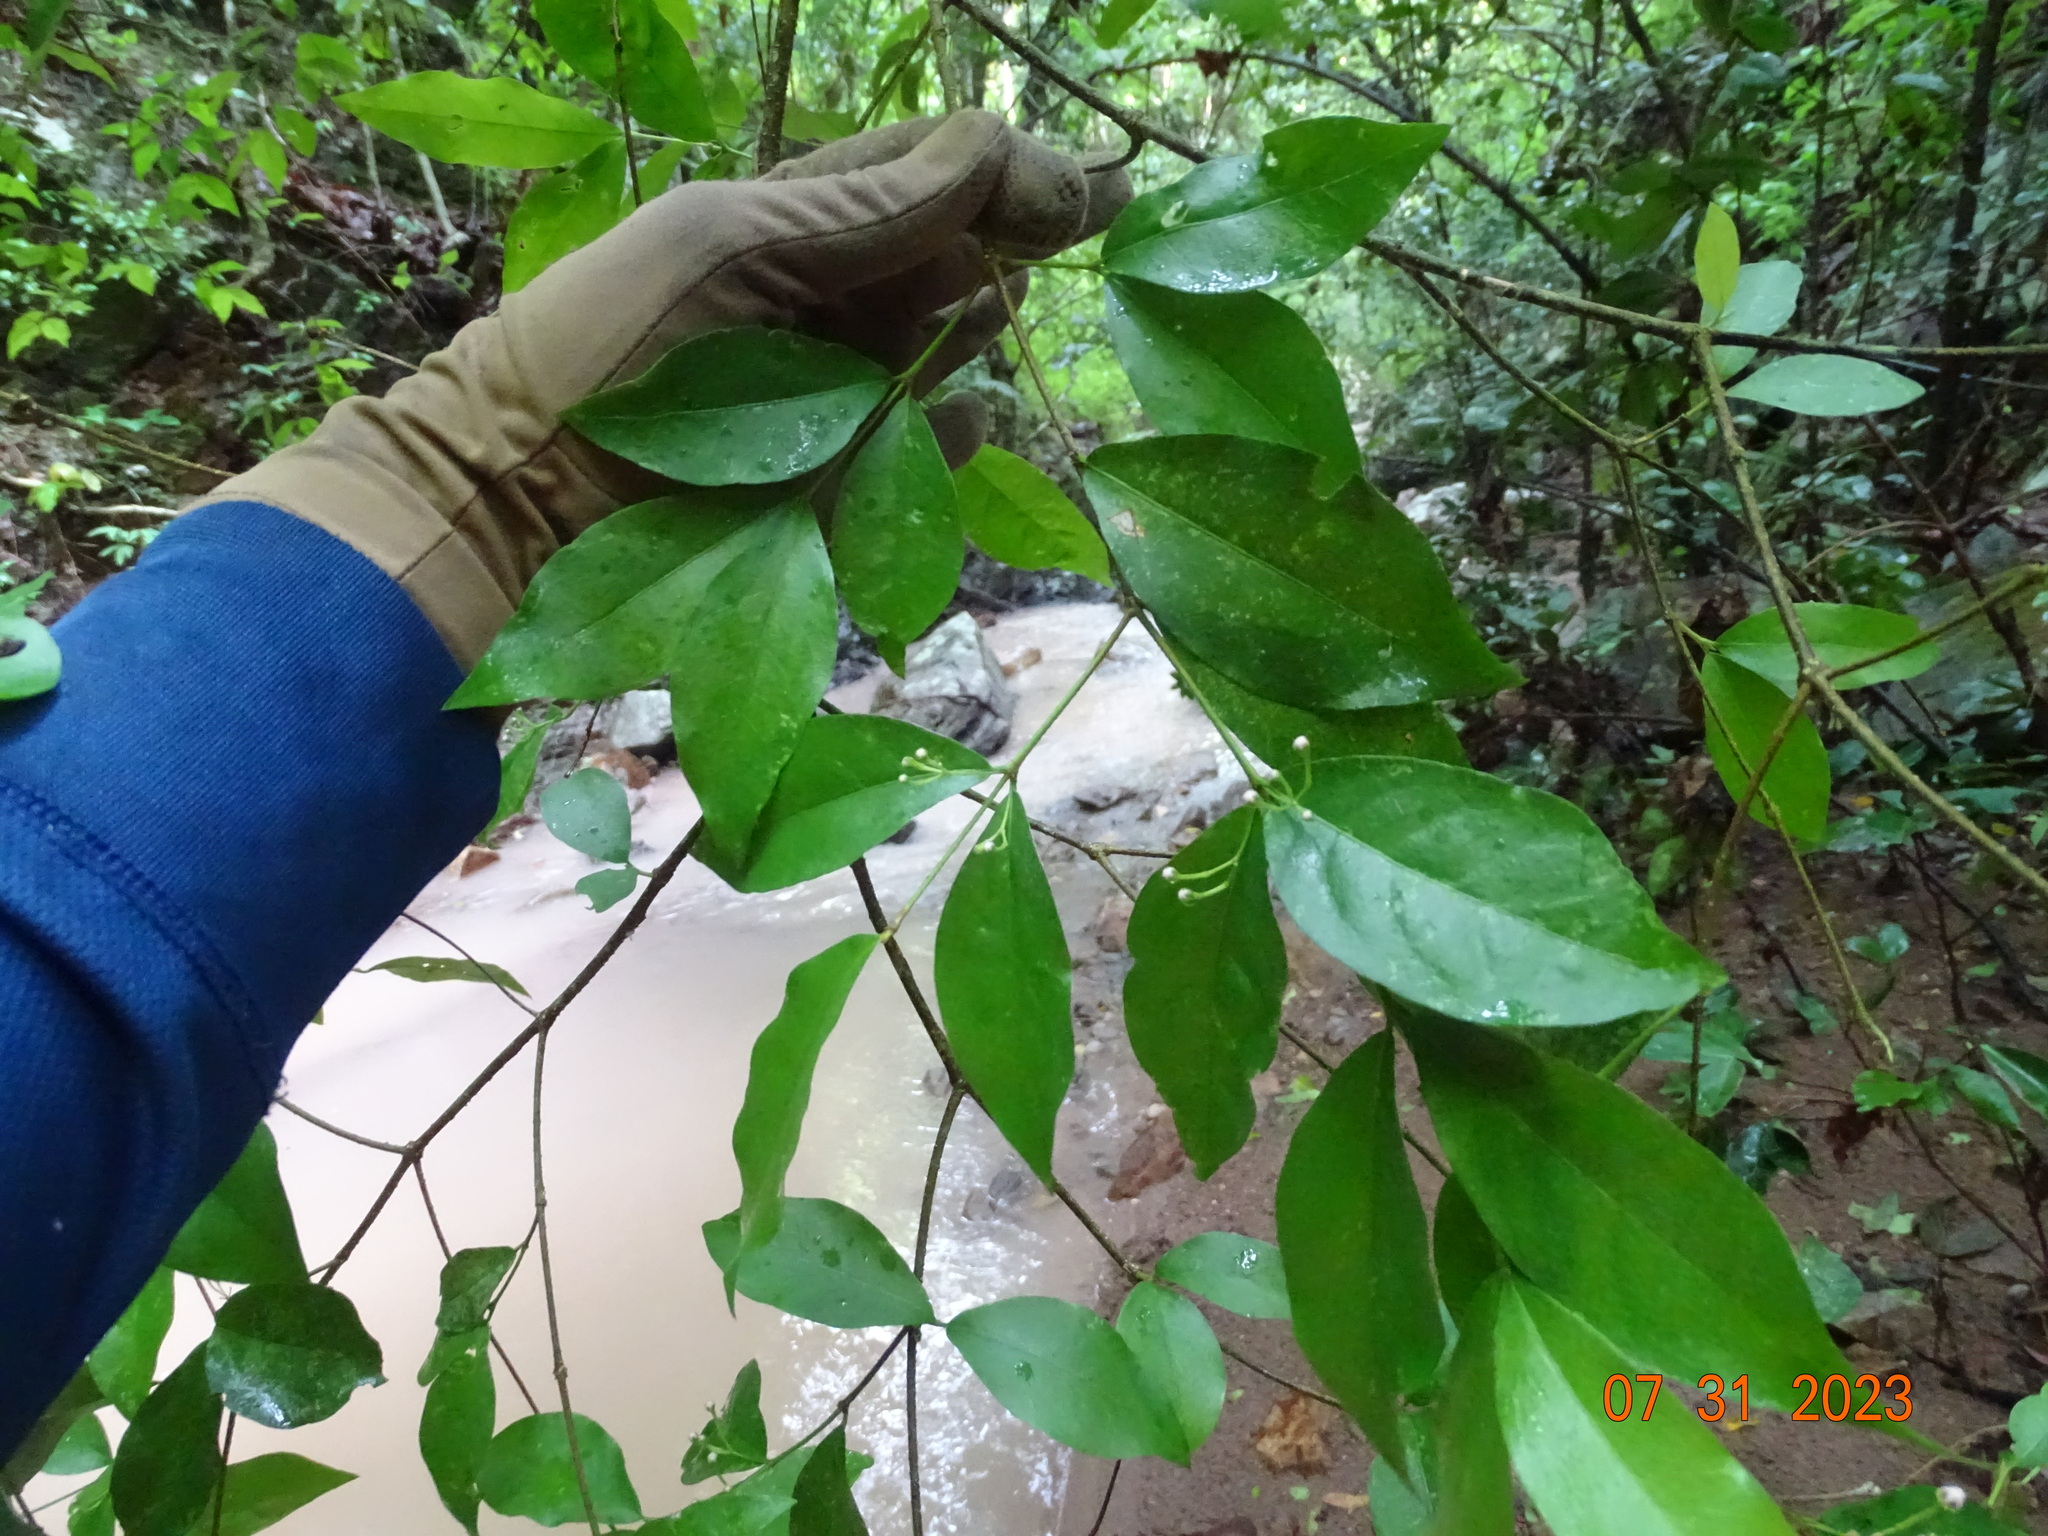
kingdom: Plantae
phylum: Tracheophyta
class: Magnoliopsida
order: Malpighiales
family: Malpighiaceae
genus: Malpighia
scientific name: Malpighia wilburiorum
